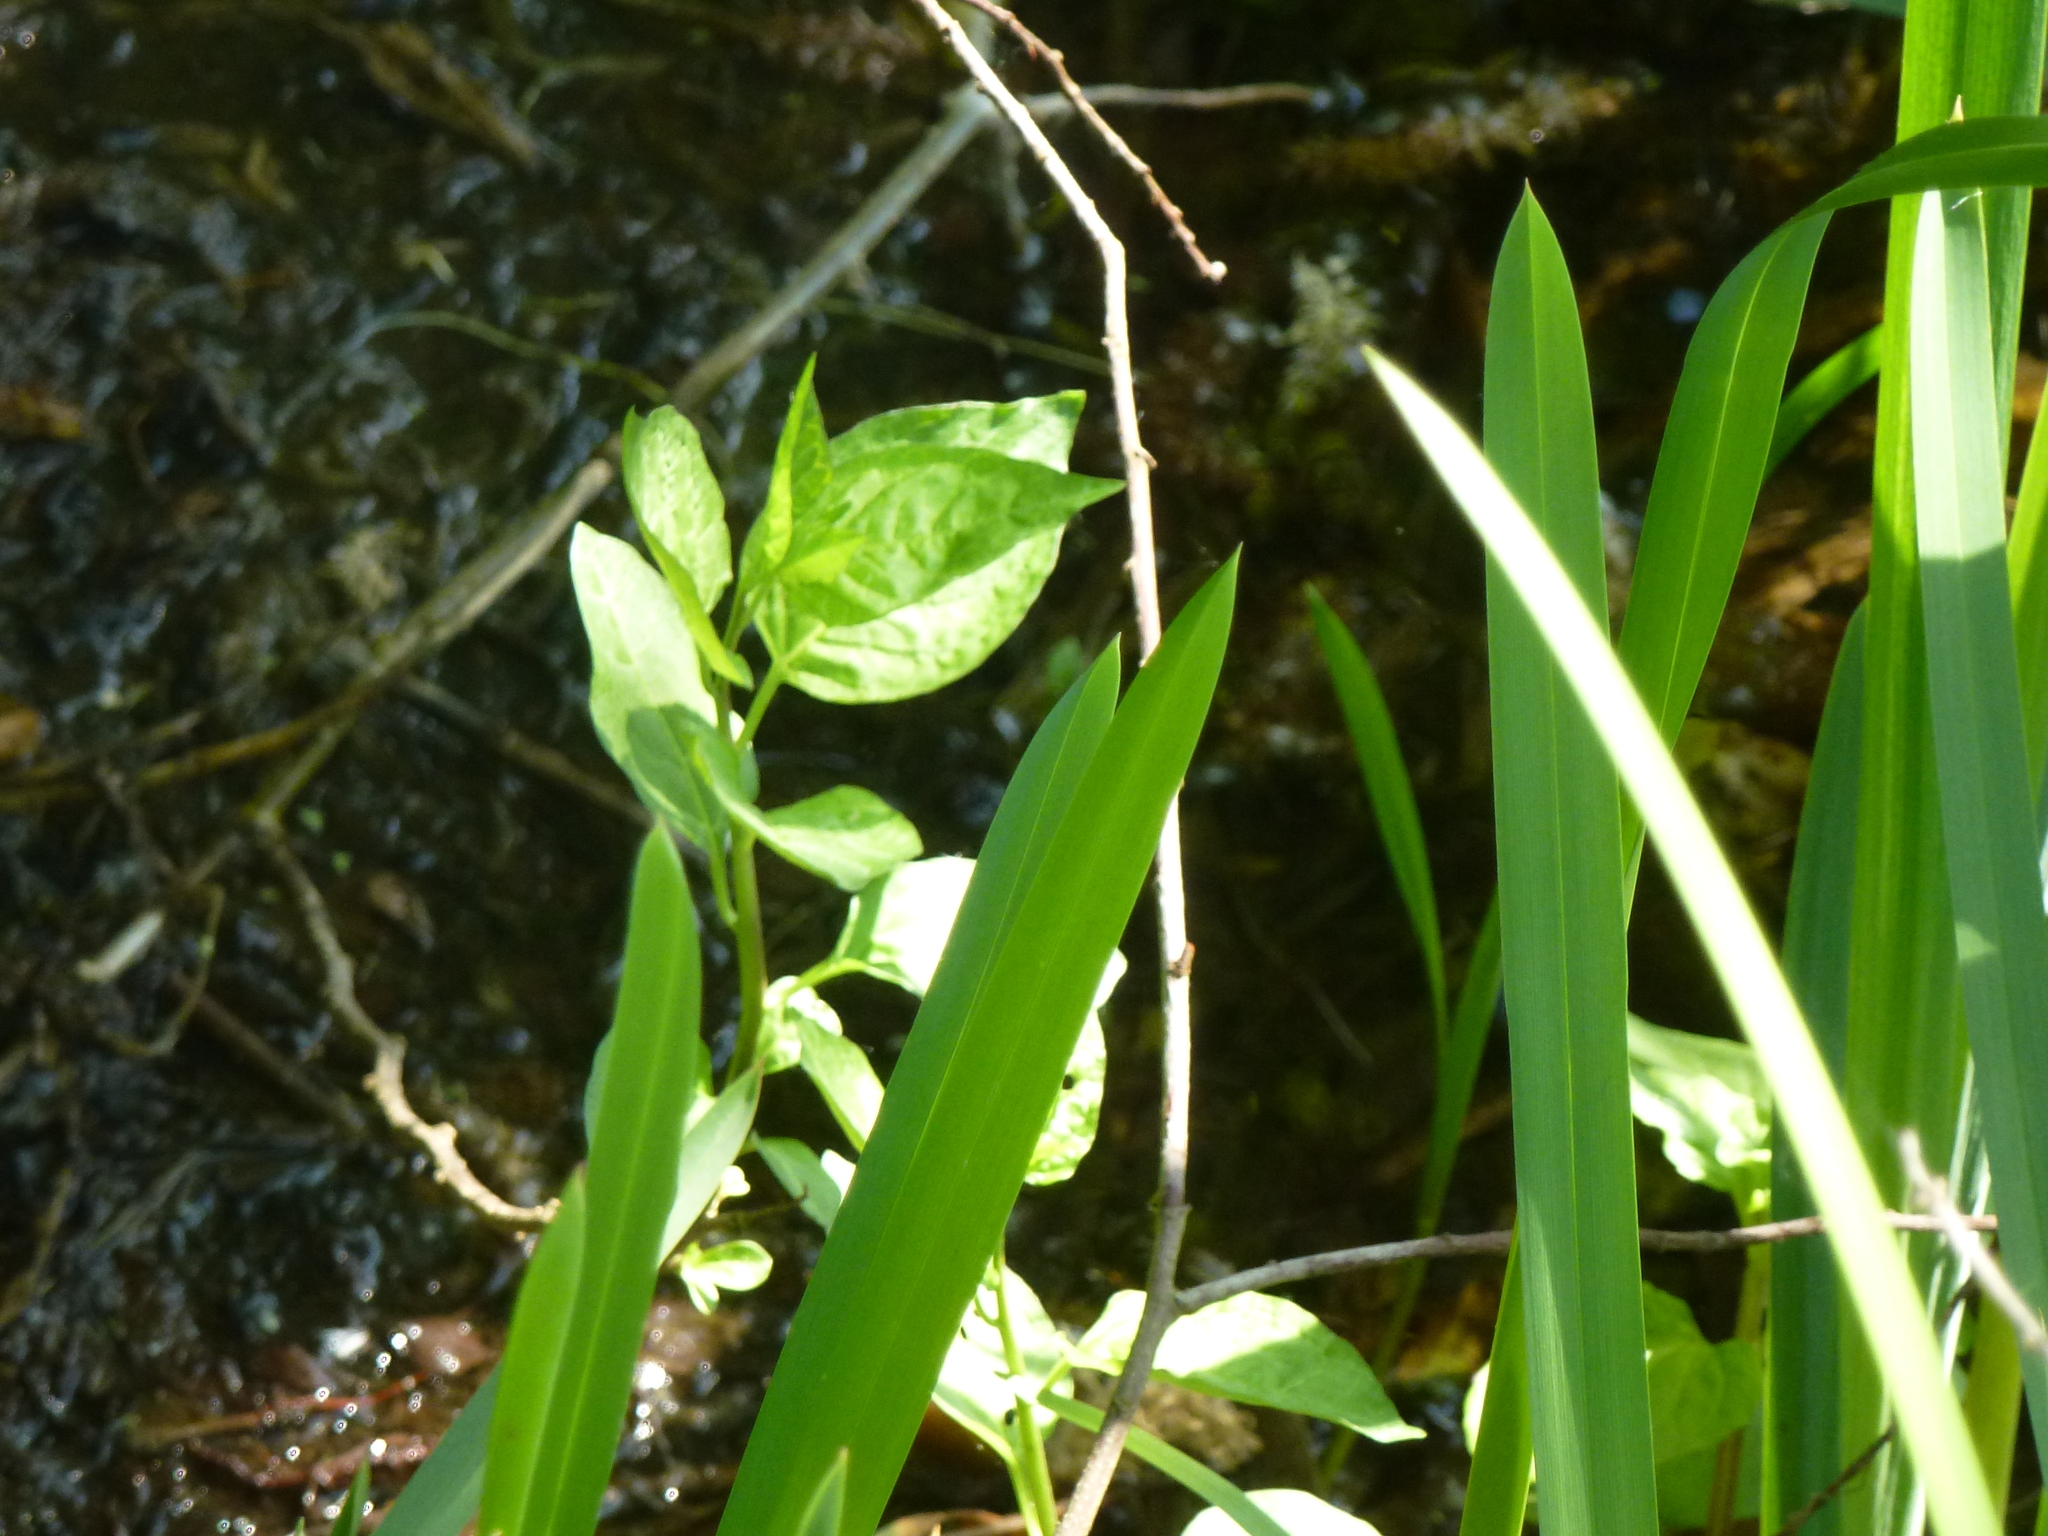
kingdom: Plantae
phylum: Tracheophyta
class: Magnoliopsida
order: Solanales
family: Solanaceae
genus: Solanum
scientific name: Solanum dulcamara
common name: Climbing nightshade
